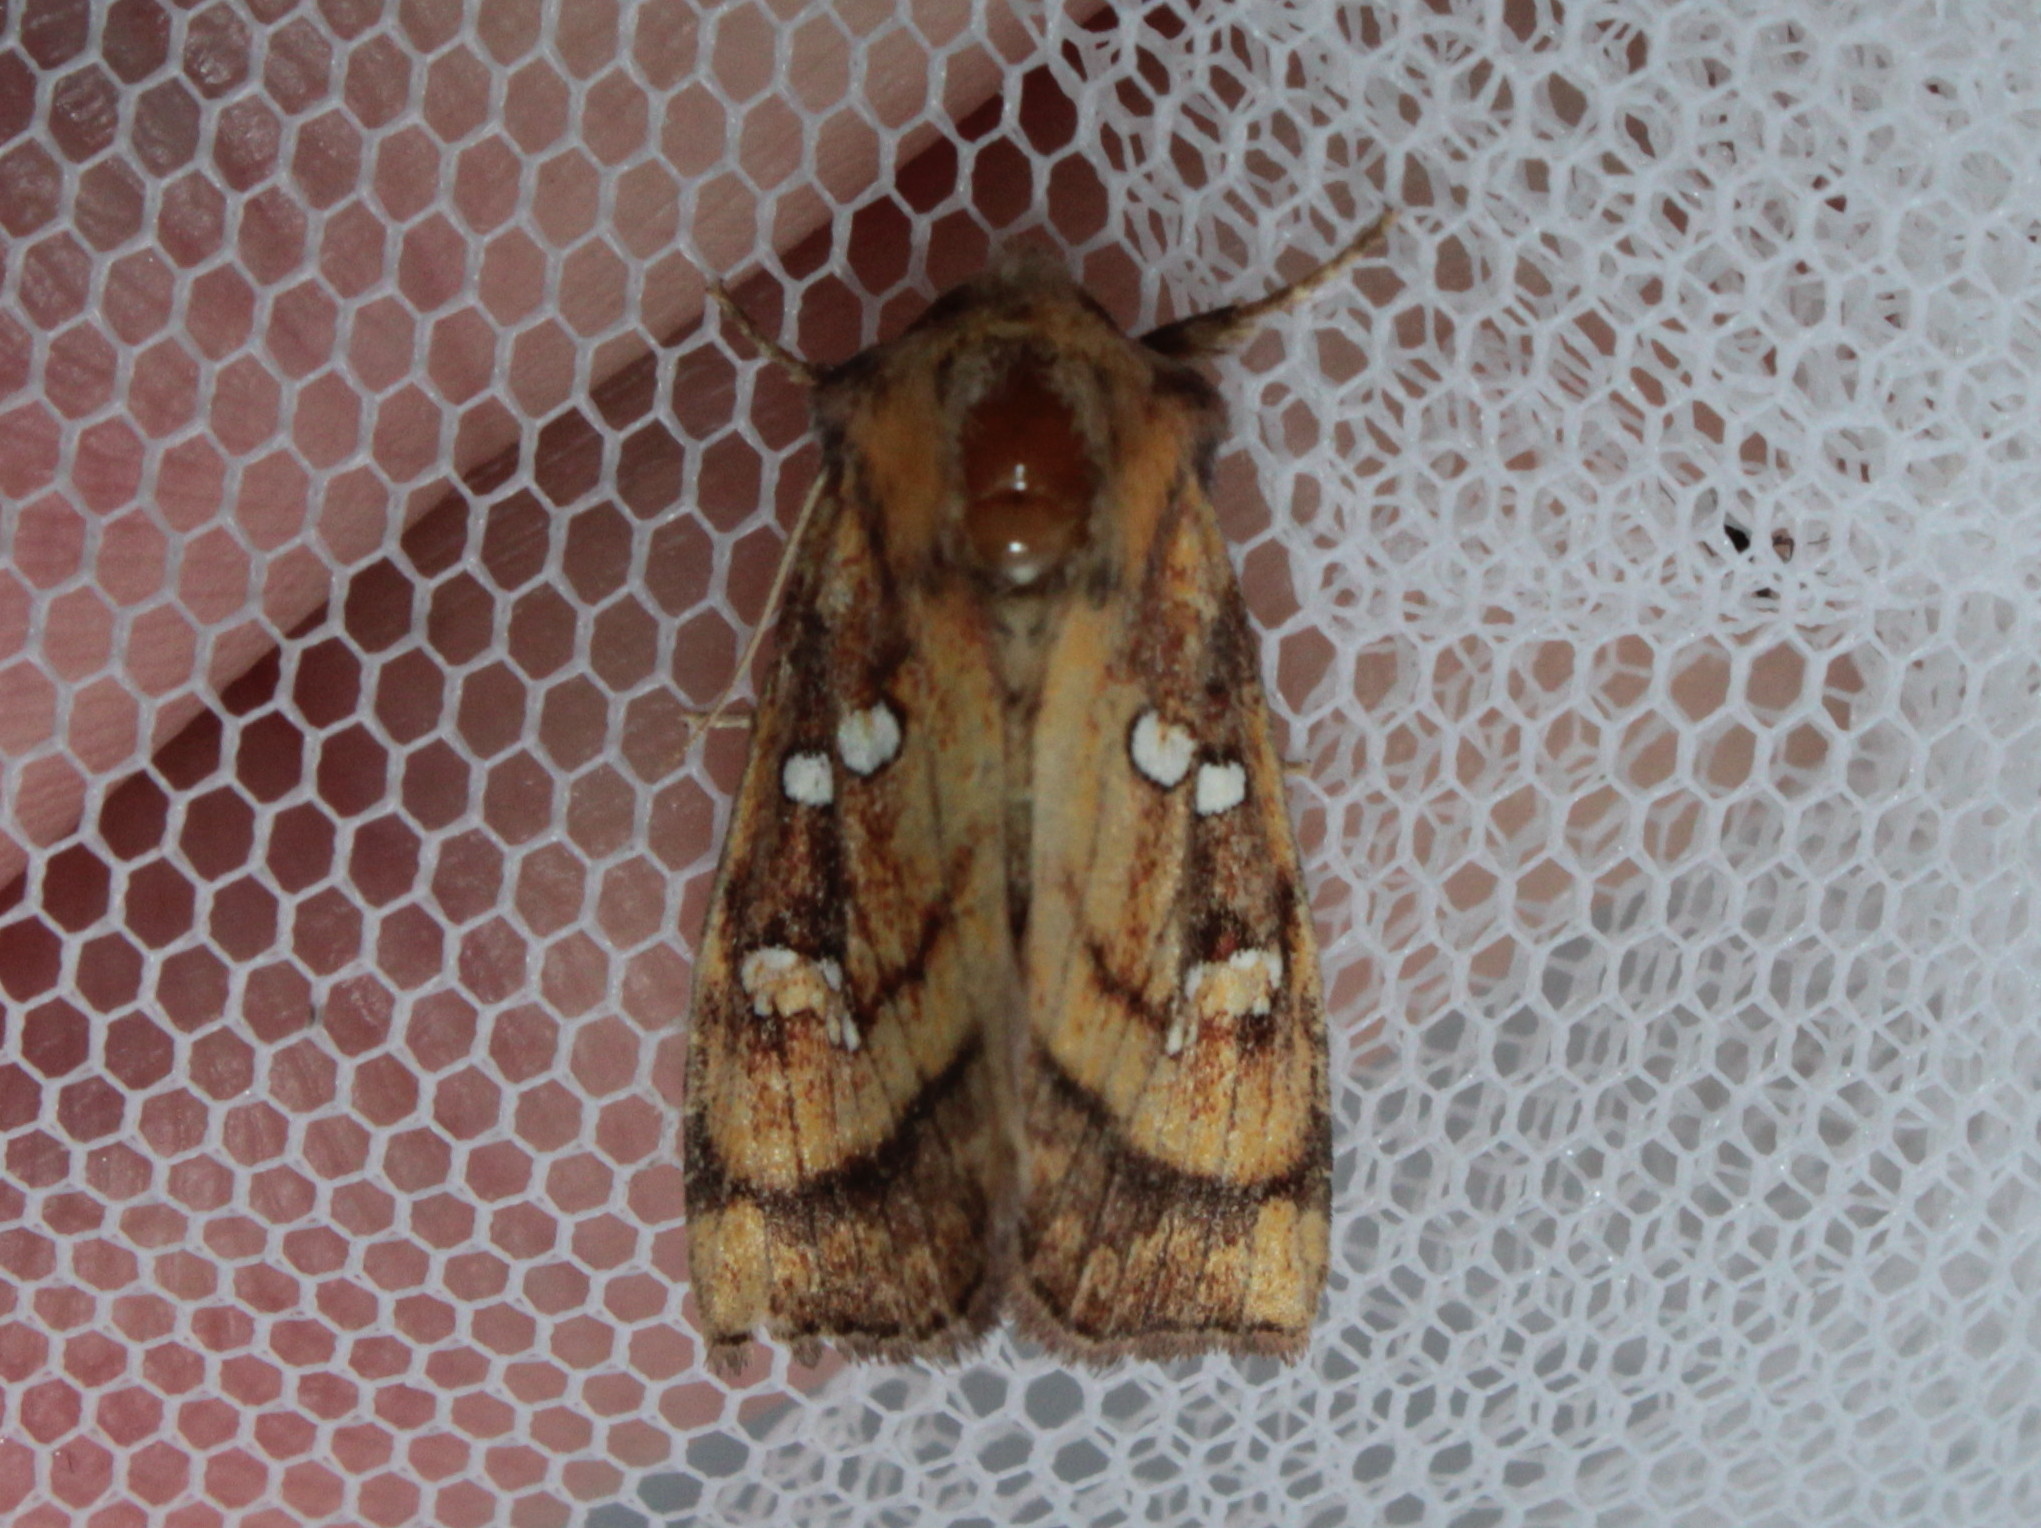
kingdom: Animalia
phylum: Arthropoda
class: Insecta
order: Lepidoptera
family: Noctuidae
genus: Papaipema
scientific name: Papaipema pterisii
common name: Bracken borer moth
